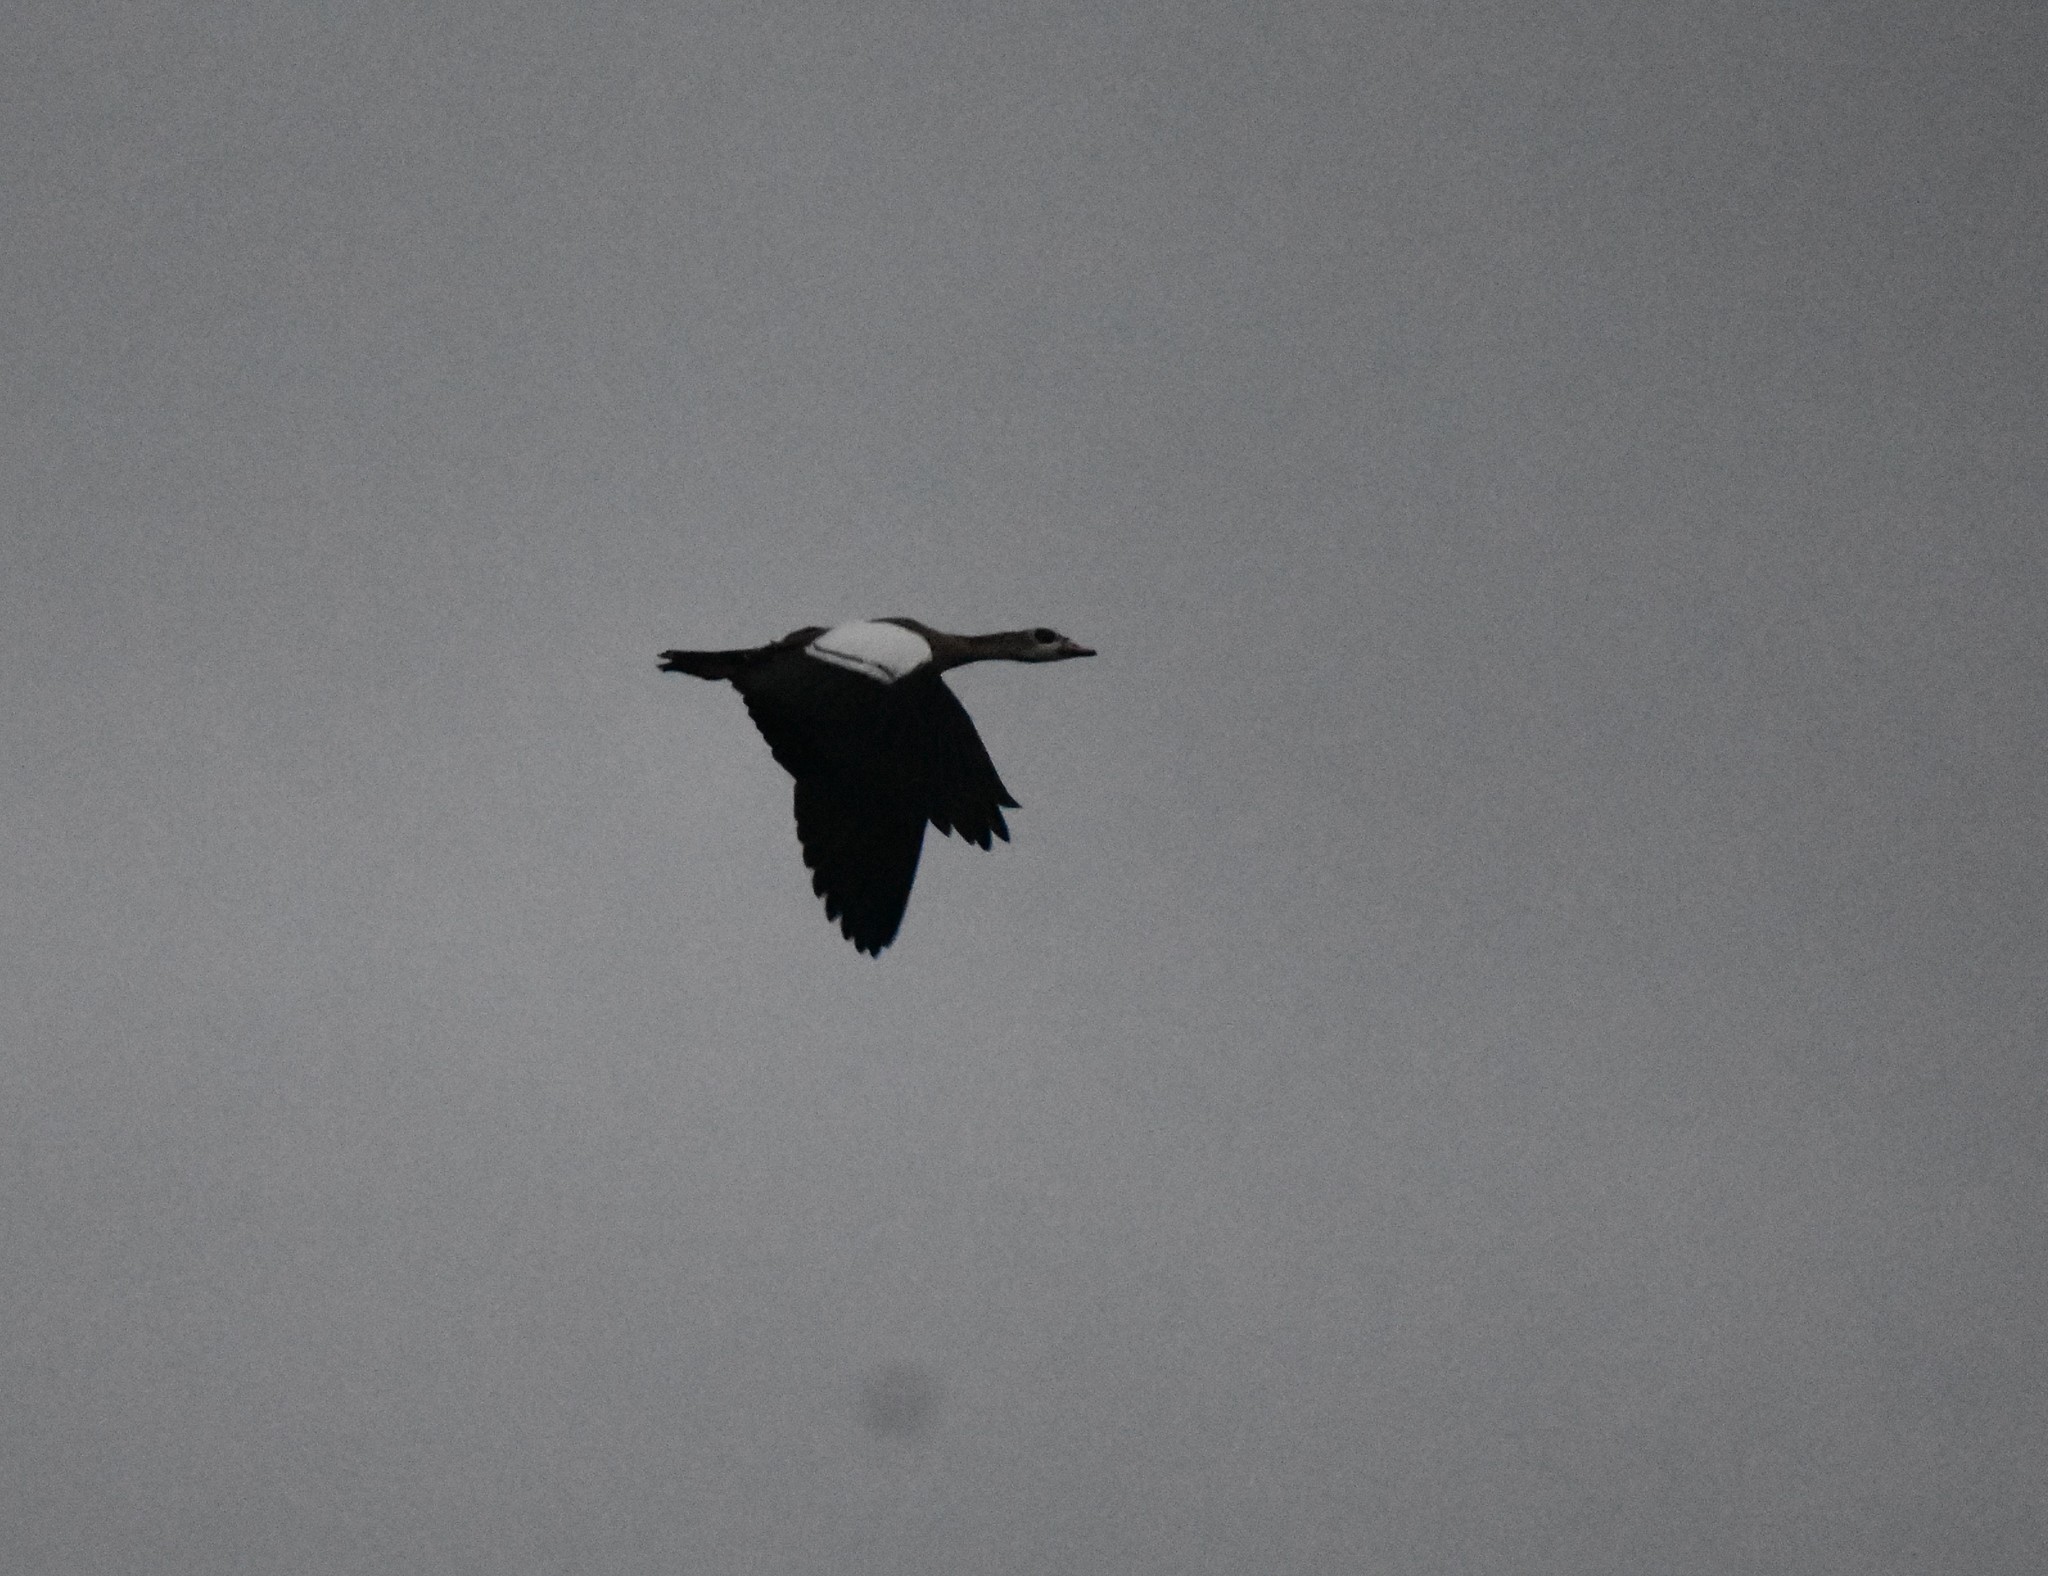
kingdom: Animalia
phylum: Chordata
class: Aves
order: Anseriformes
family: Anatidae
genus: Alopochen
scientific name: Alopochen aegyptiaca
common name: Egyptian goose
